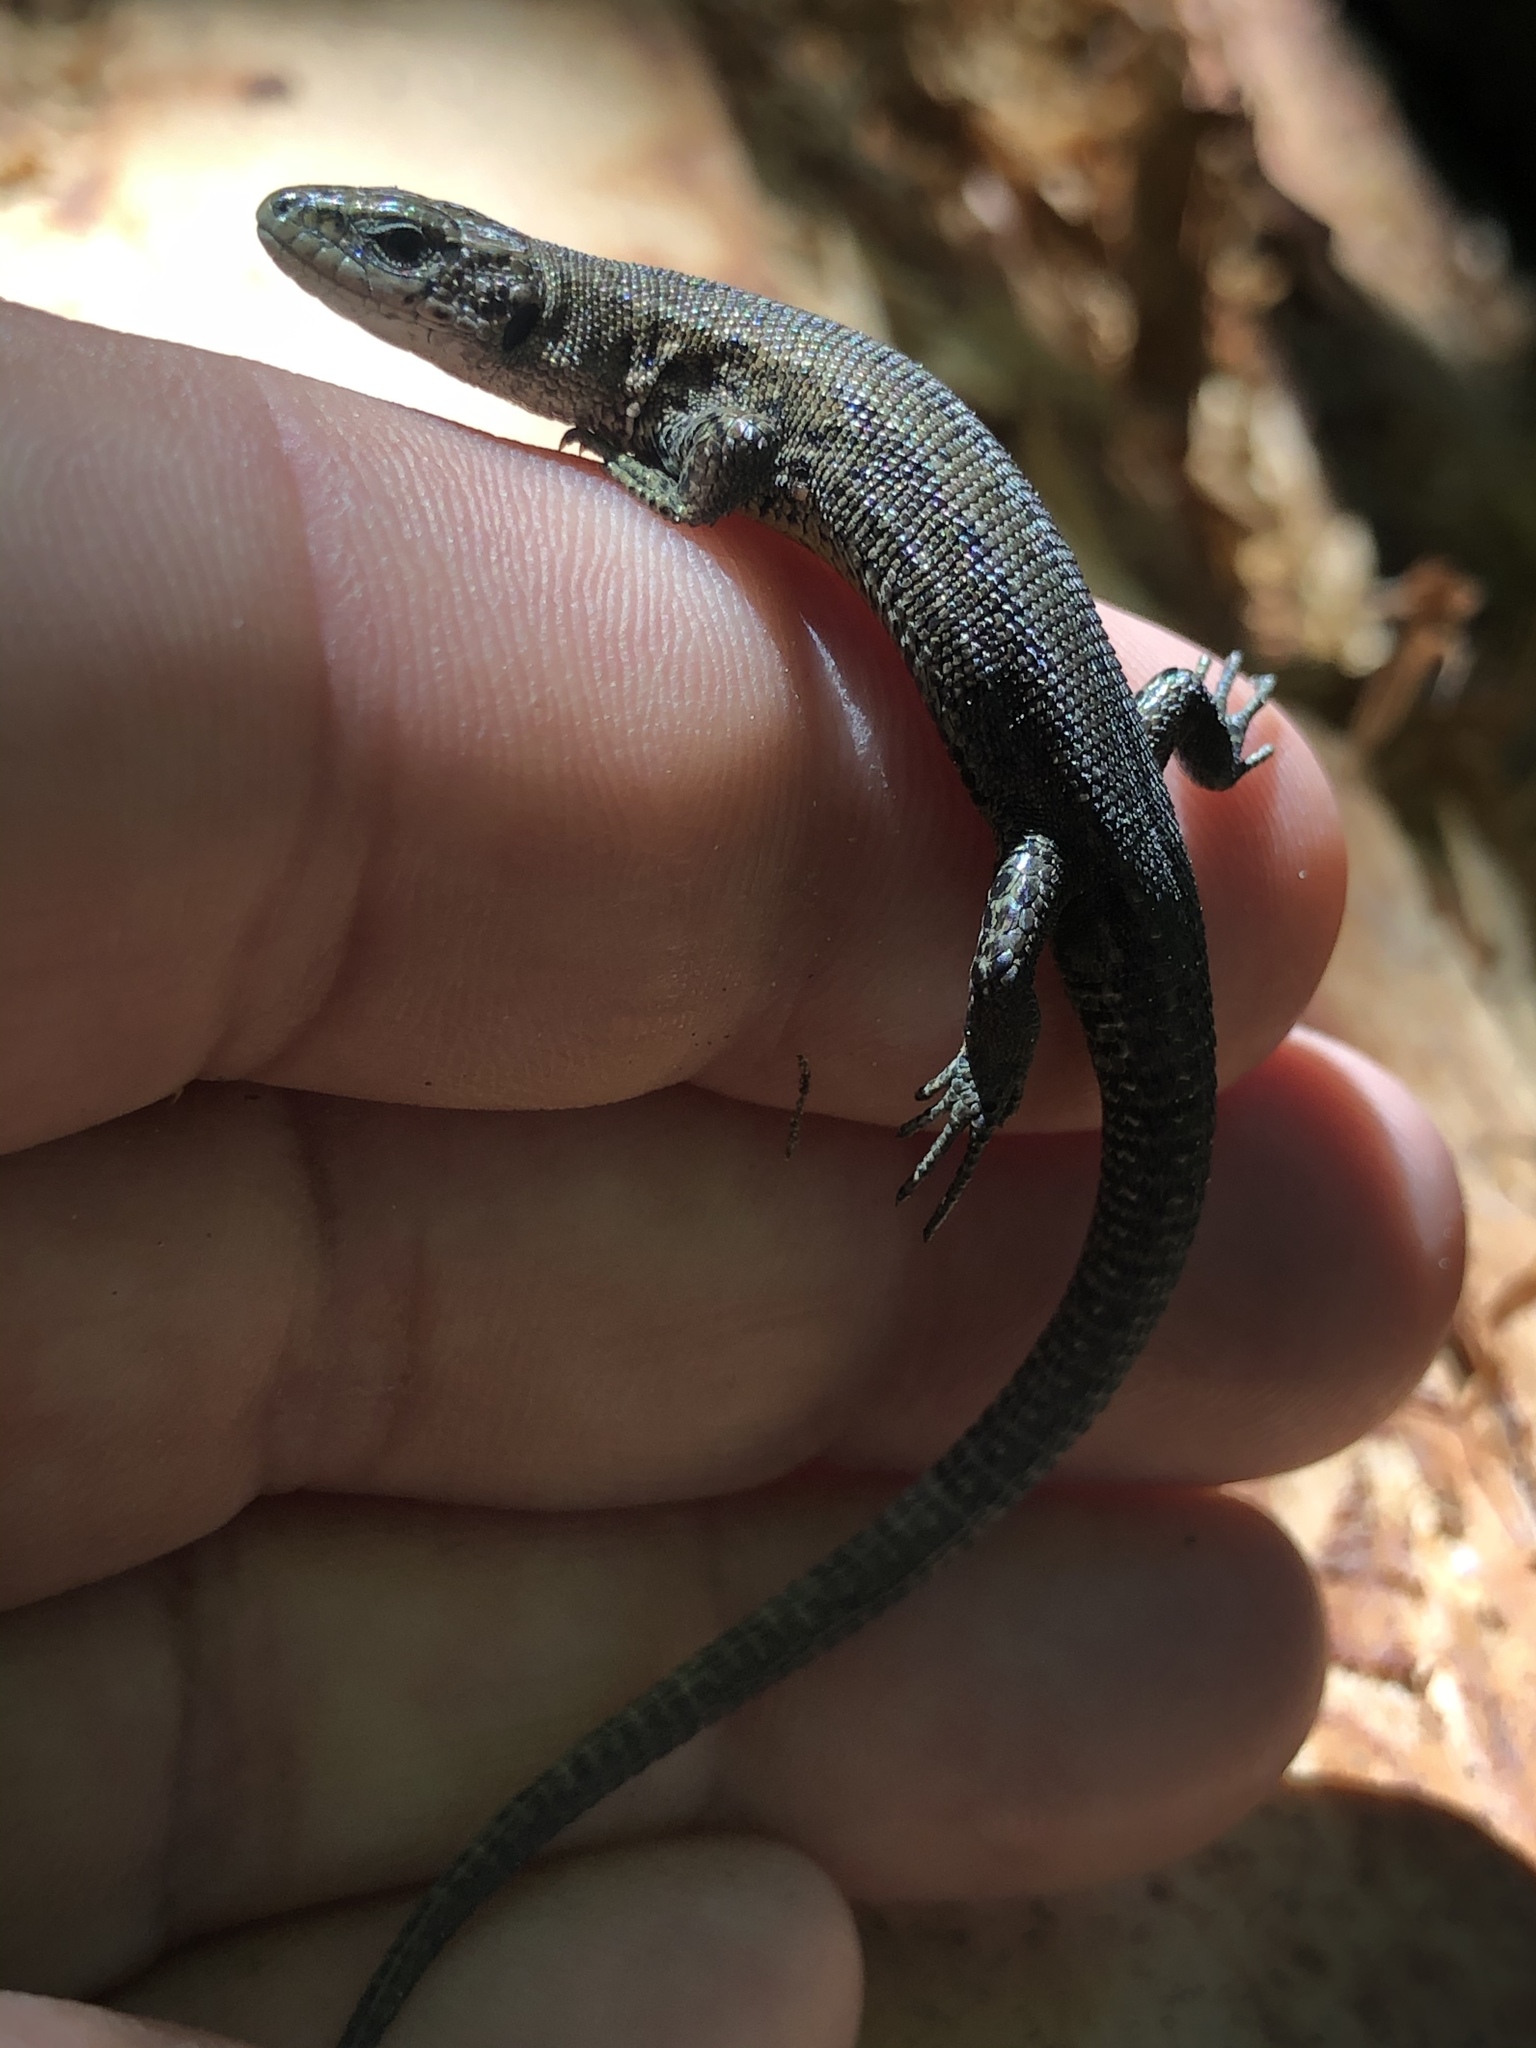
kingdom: Animalia
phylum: Chordata
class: Squamata
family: Lacertidae
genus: Zootoca
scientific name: Zootoca vivipara
